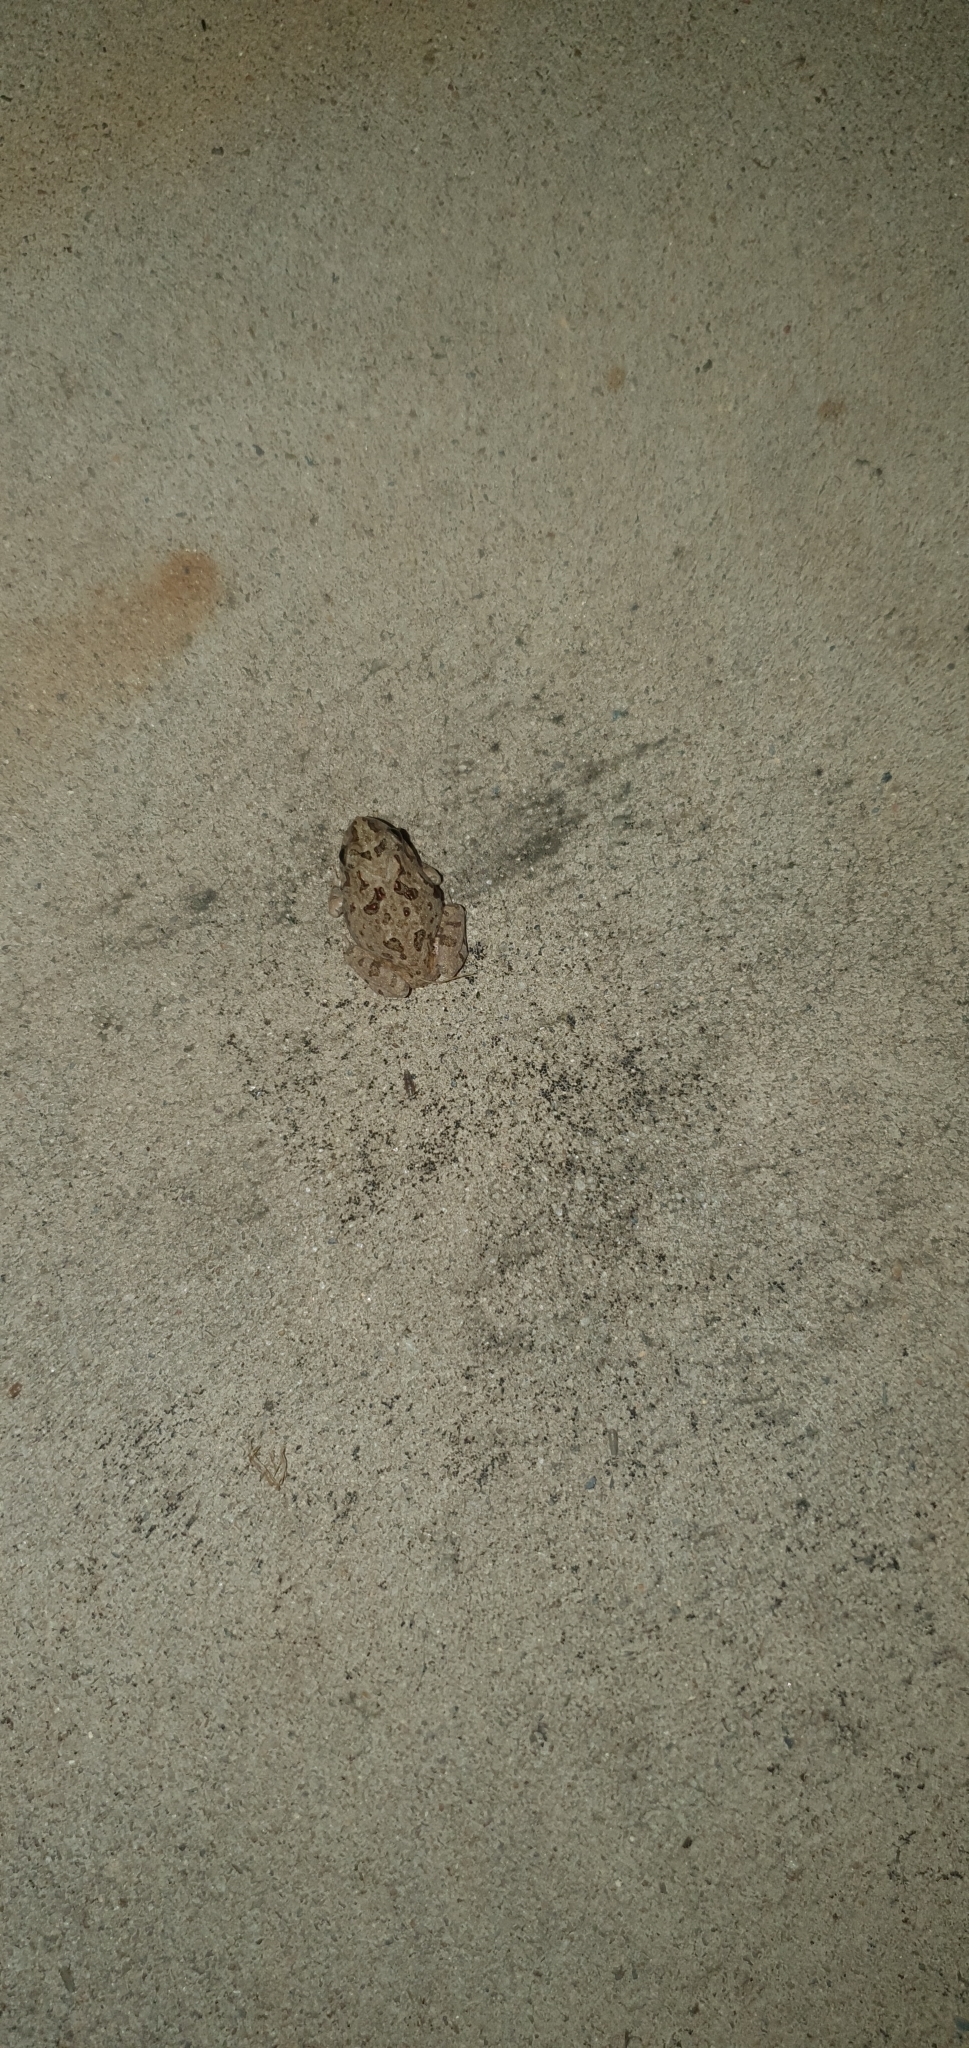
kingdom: Animalia
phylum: Chordata
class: Amphibia
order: Anura
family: Limnodynastidae
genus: Platyplectrum
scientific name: Platyplectrum ornatum
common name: Ornate burrowing frog
